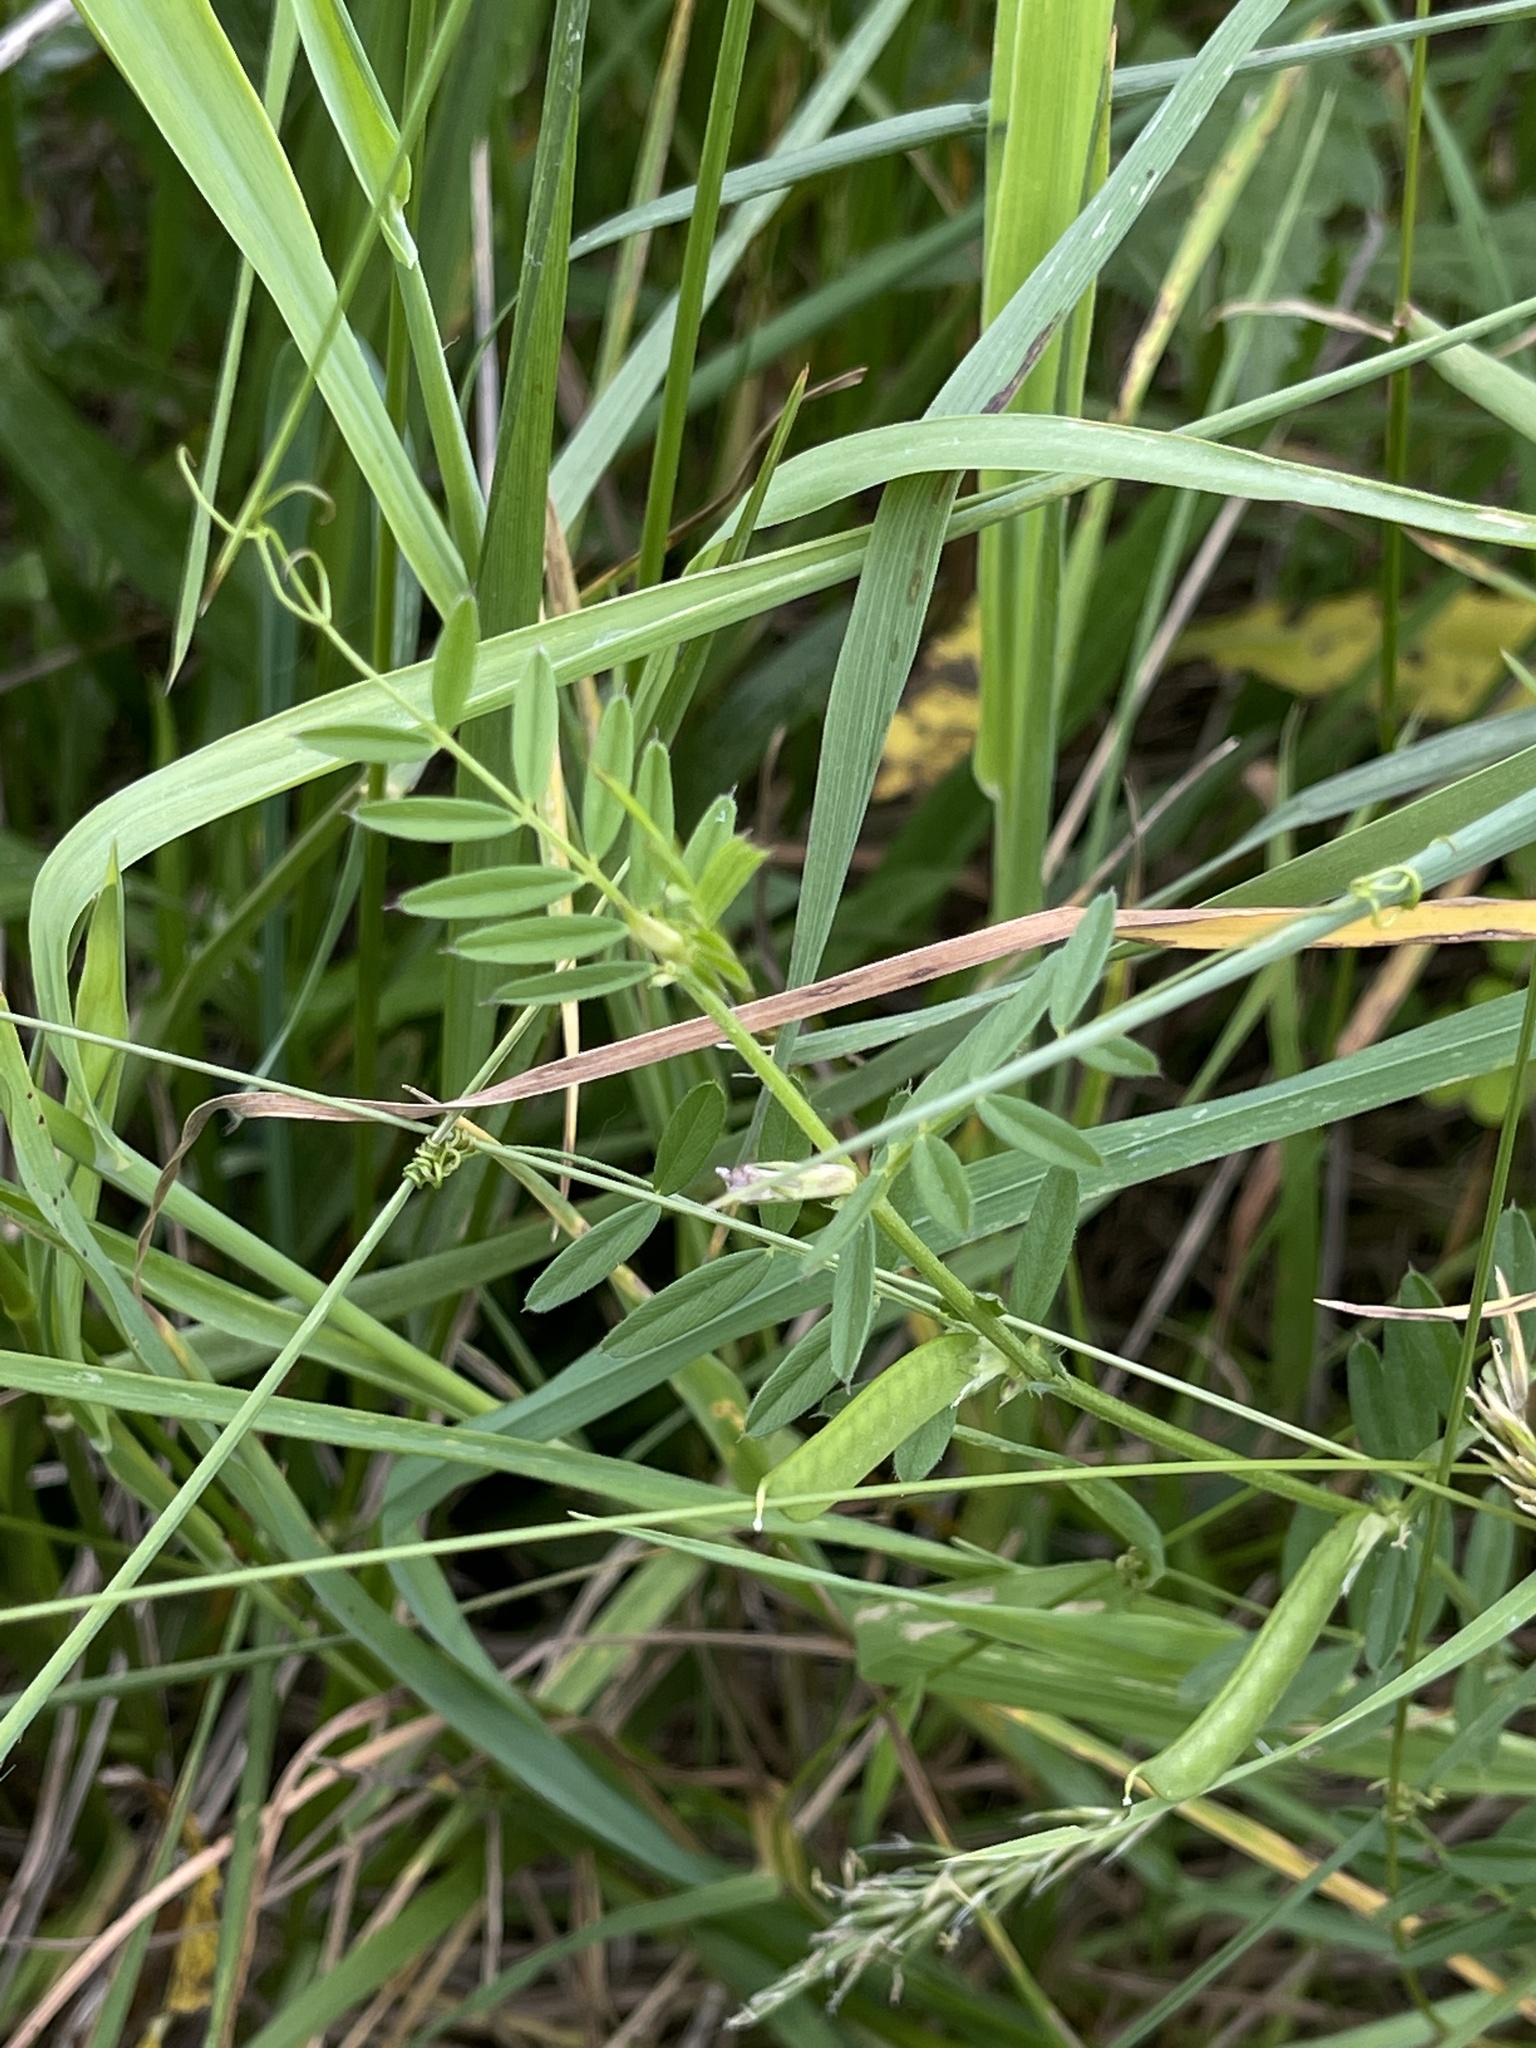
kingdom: Plantae
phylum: Tracheophyta
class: Magnoliopsida
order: Fabales
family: Fabaceae
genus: Vicia
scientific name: Vicia sativa
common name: Garden vetch
